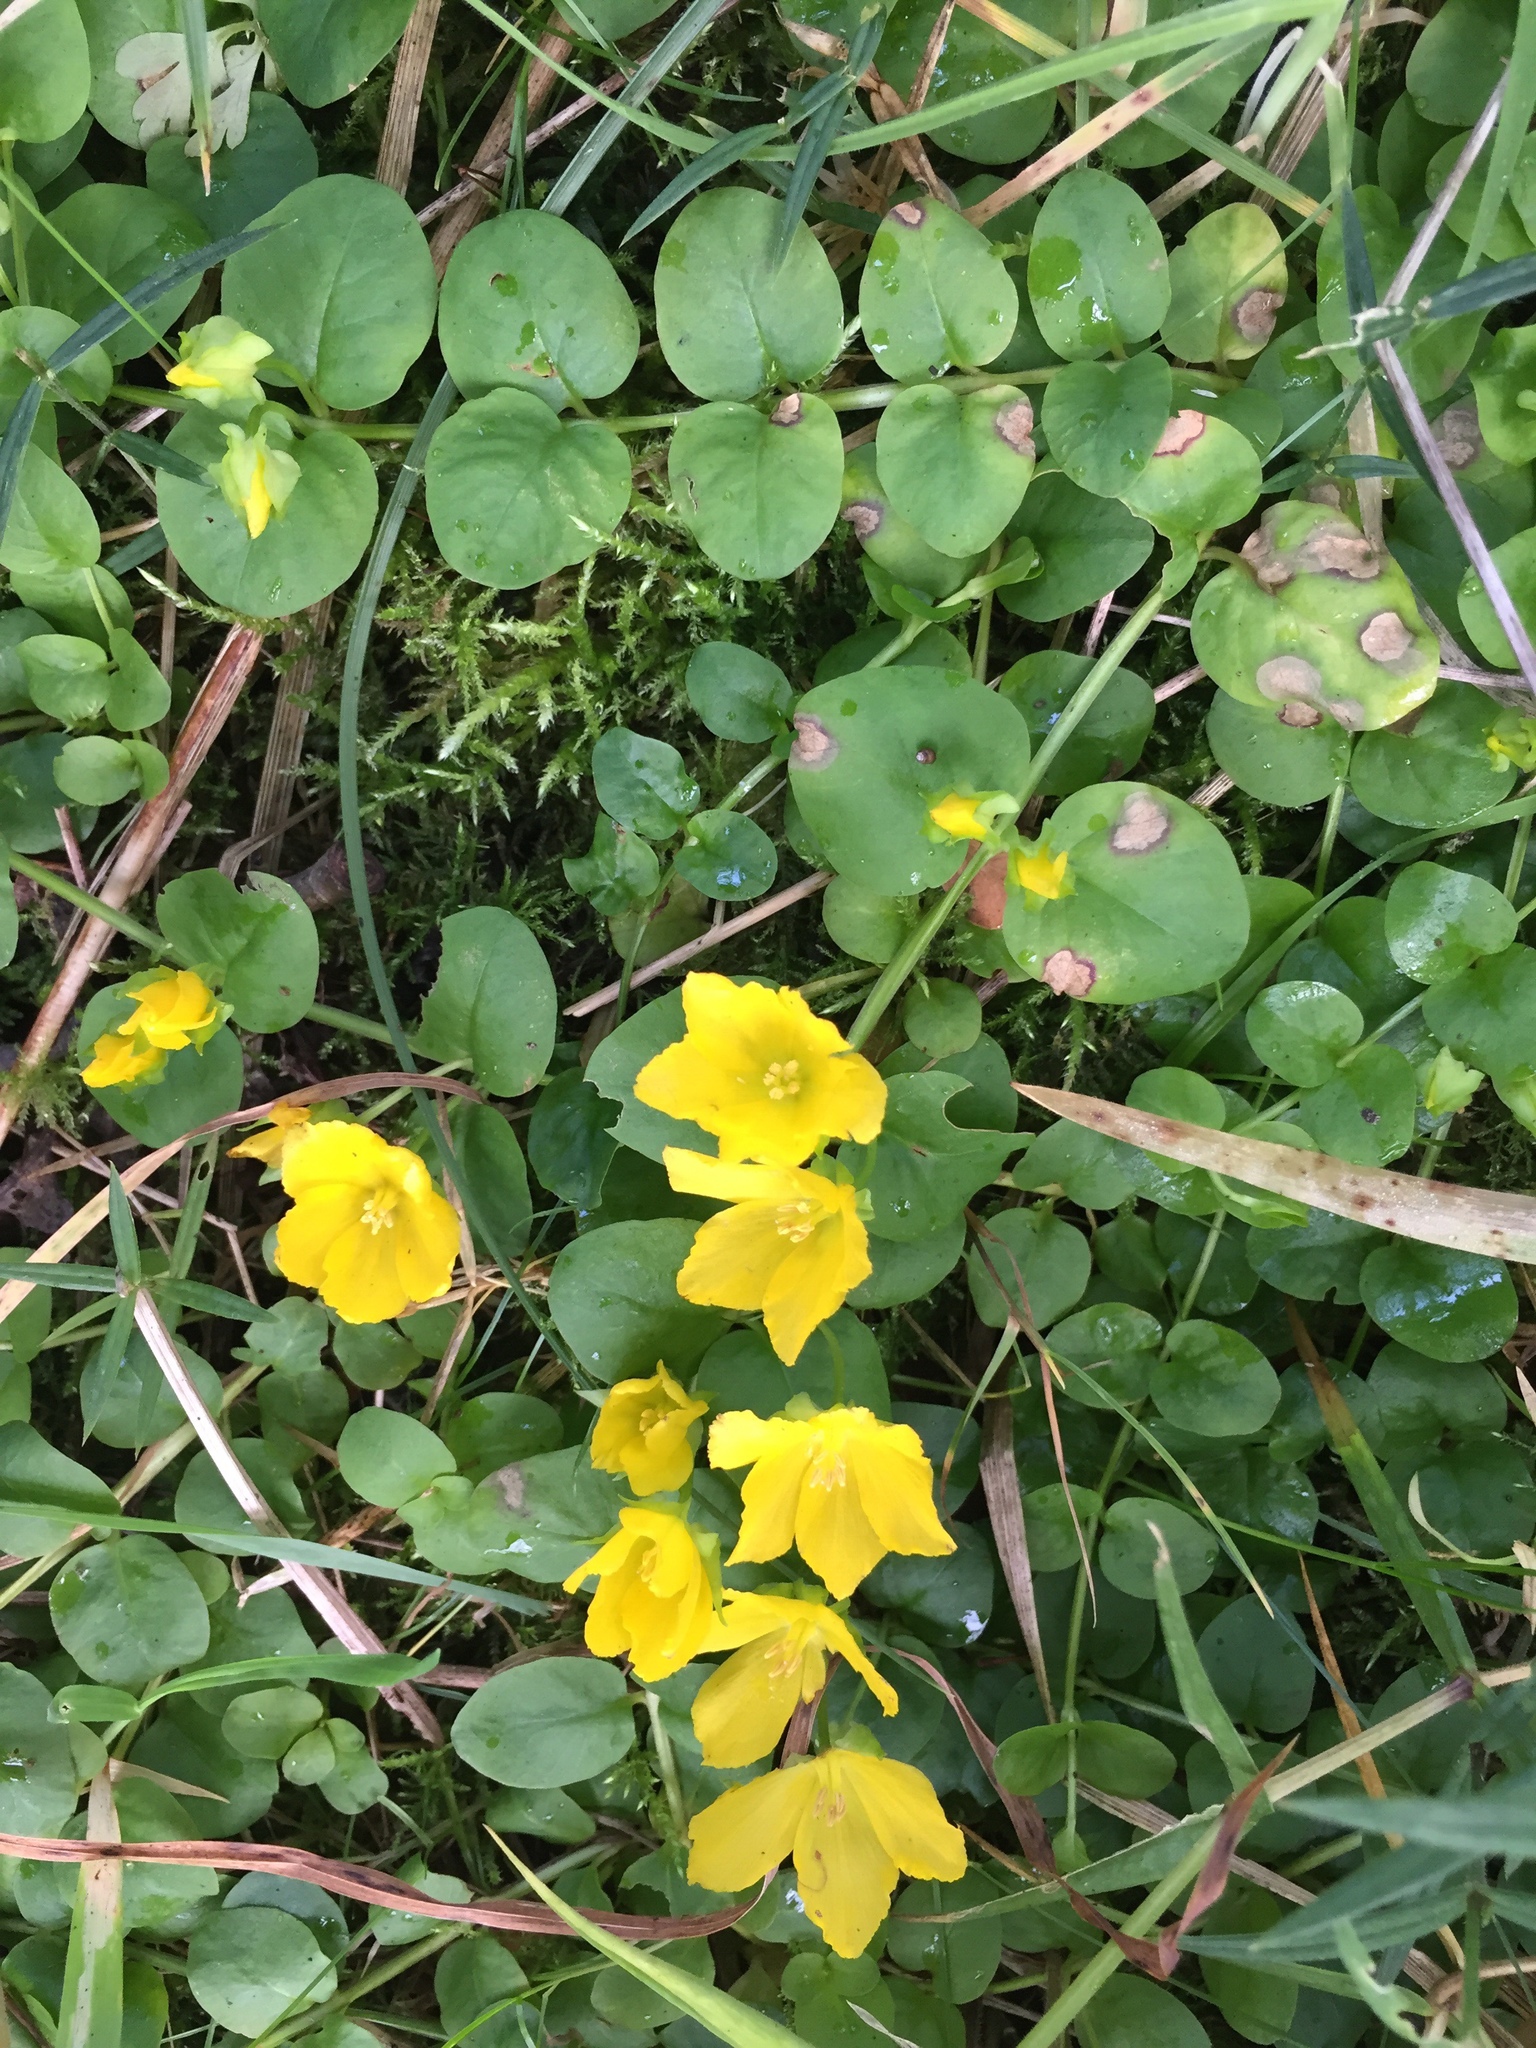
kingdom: Plantae
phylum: Tracheophyta
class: Magnoliopsida
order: Ericales
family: Primulaceae
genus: Lysimachia
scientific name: Lysimachia nummularia
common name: Moneywort
